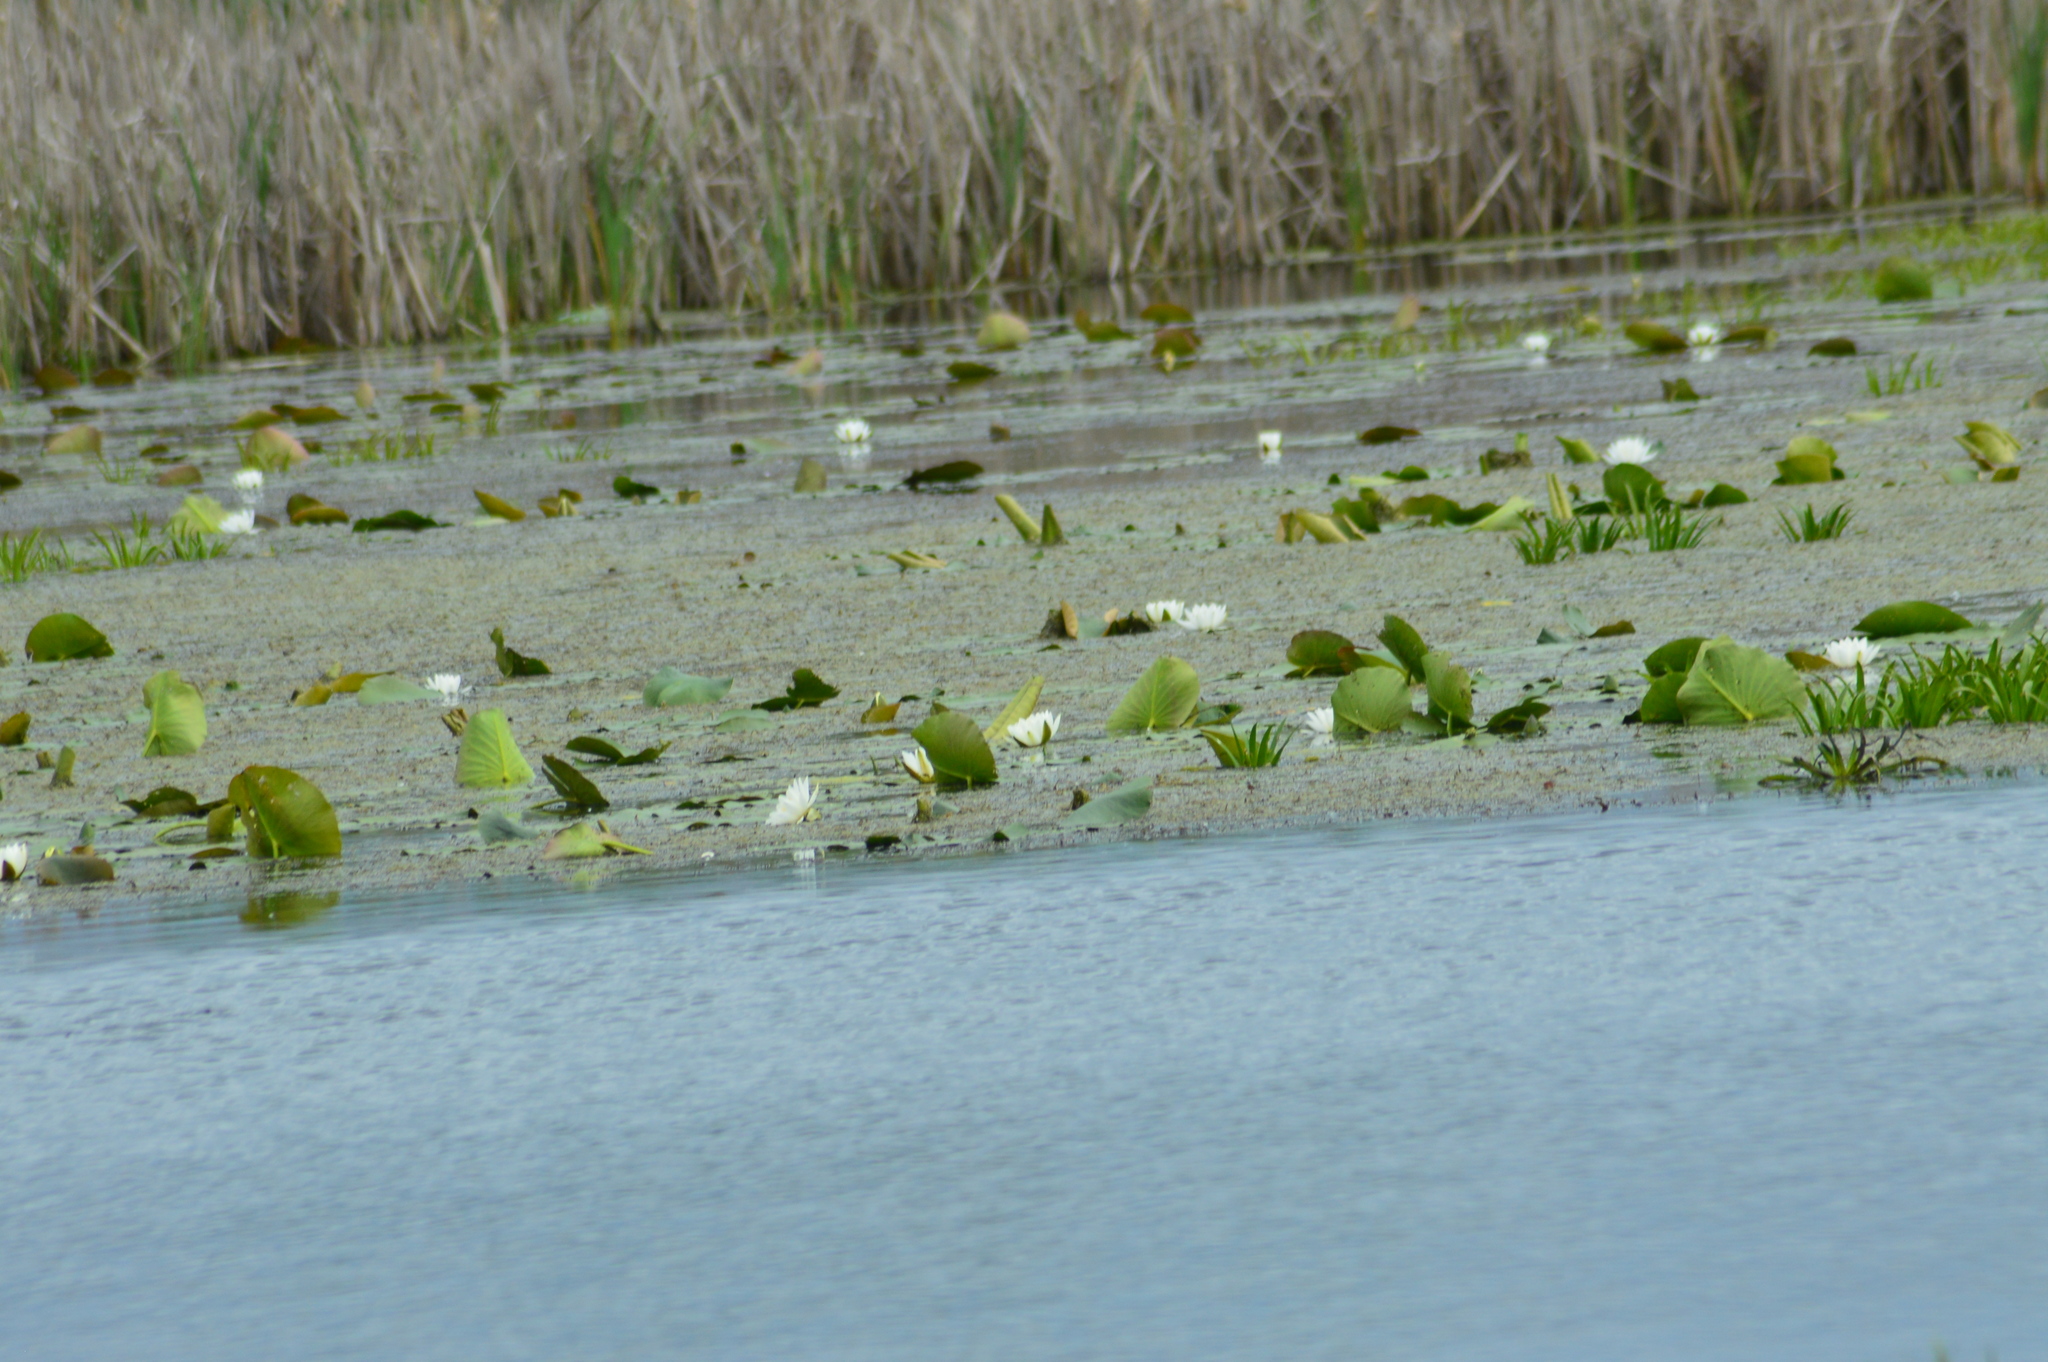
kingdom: Plantae
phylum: Tracheophyta
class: Magnoliopsida
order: Nymphaeales
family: Nymphaeaceae
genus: Nymphaea
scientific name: Nymphaea alba
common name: White water-lily
